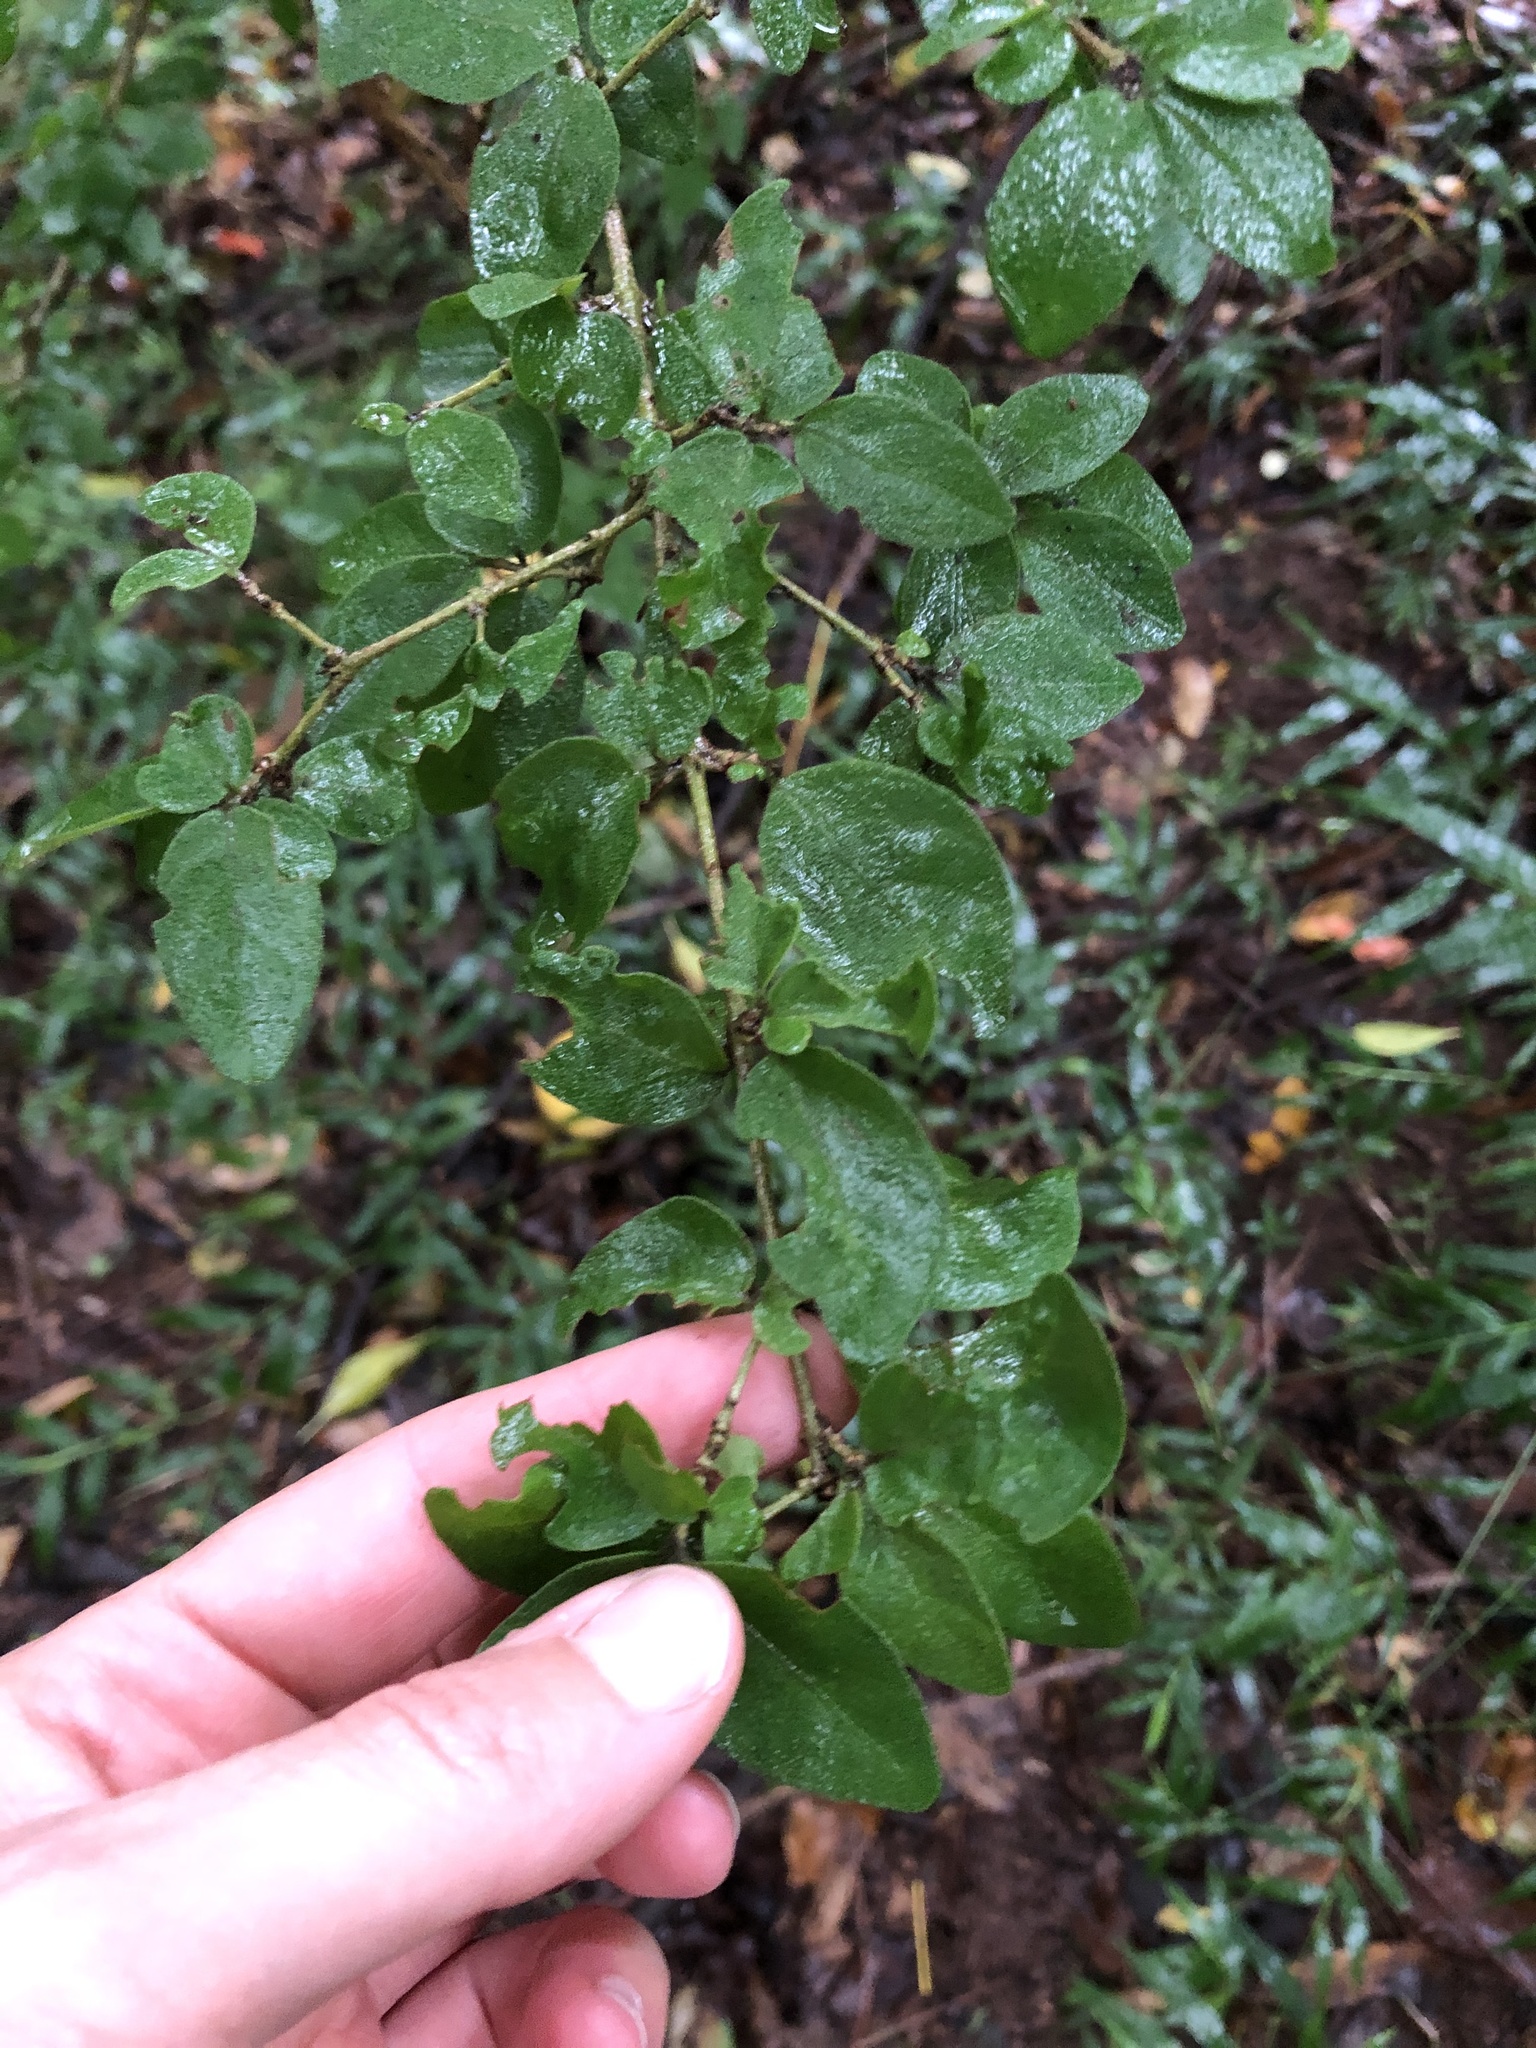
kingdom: Plantae
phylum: Tracheophyta
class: Magnoliopsida
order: Gentianales
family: Rubiaceae
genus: Canthium
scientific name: Canthium ciliatum
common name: Hairy turkey-berry
